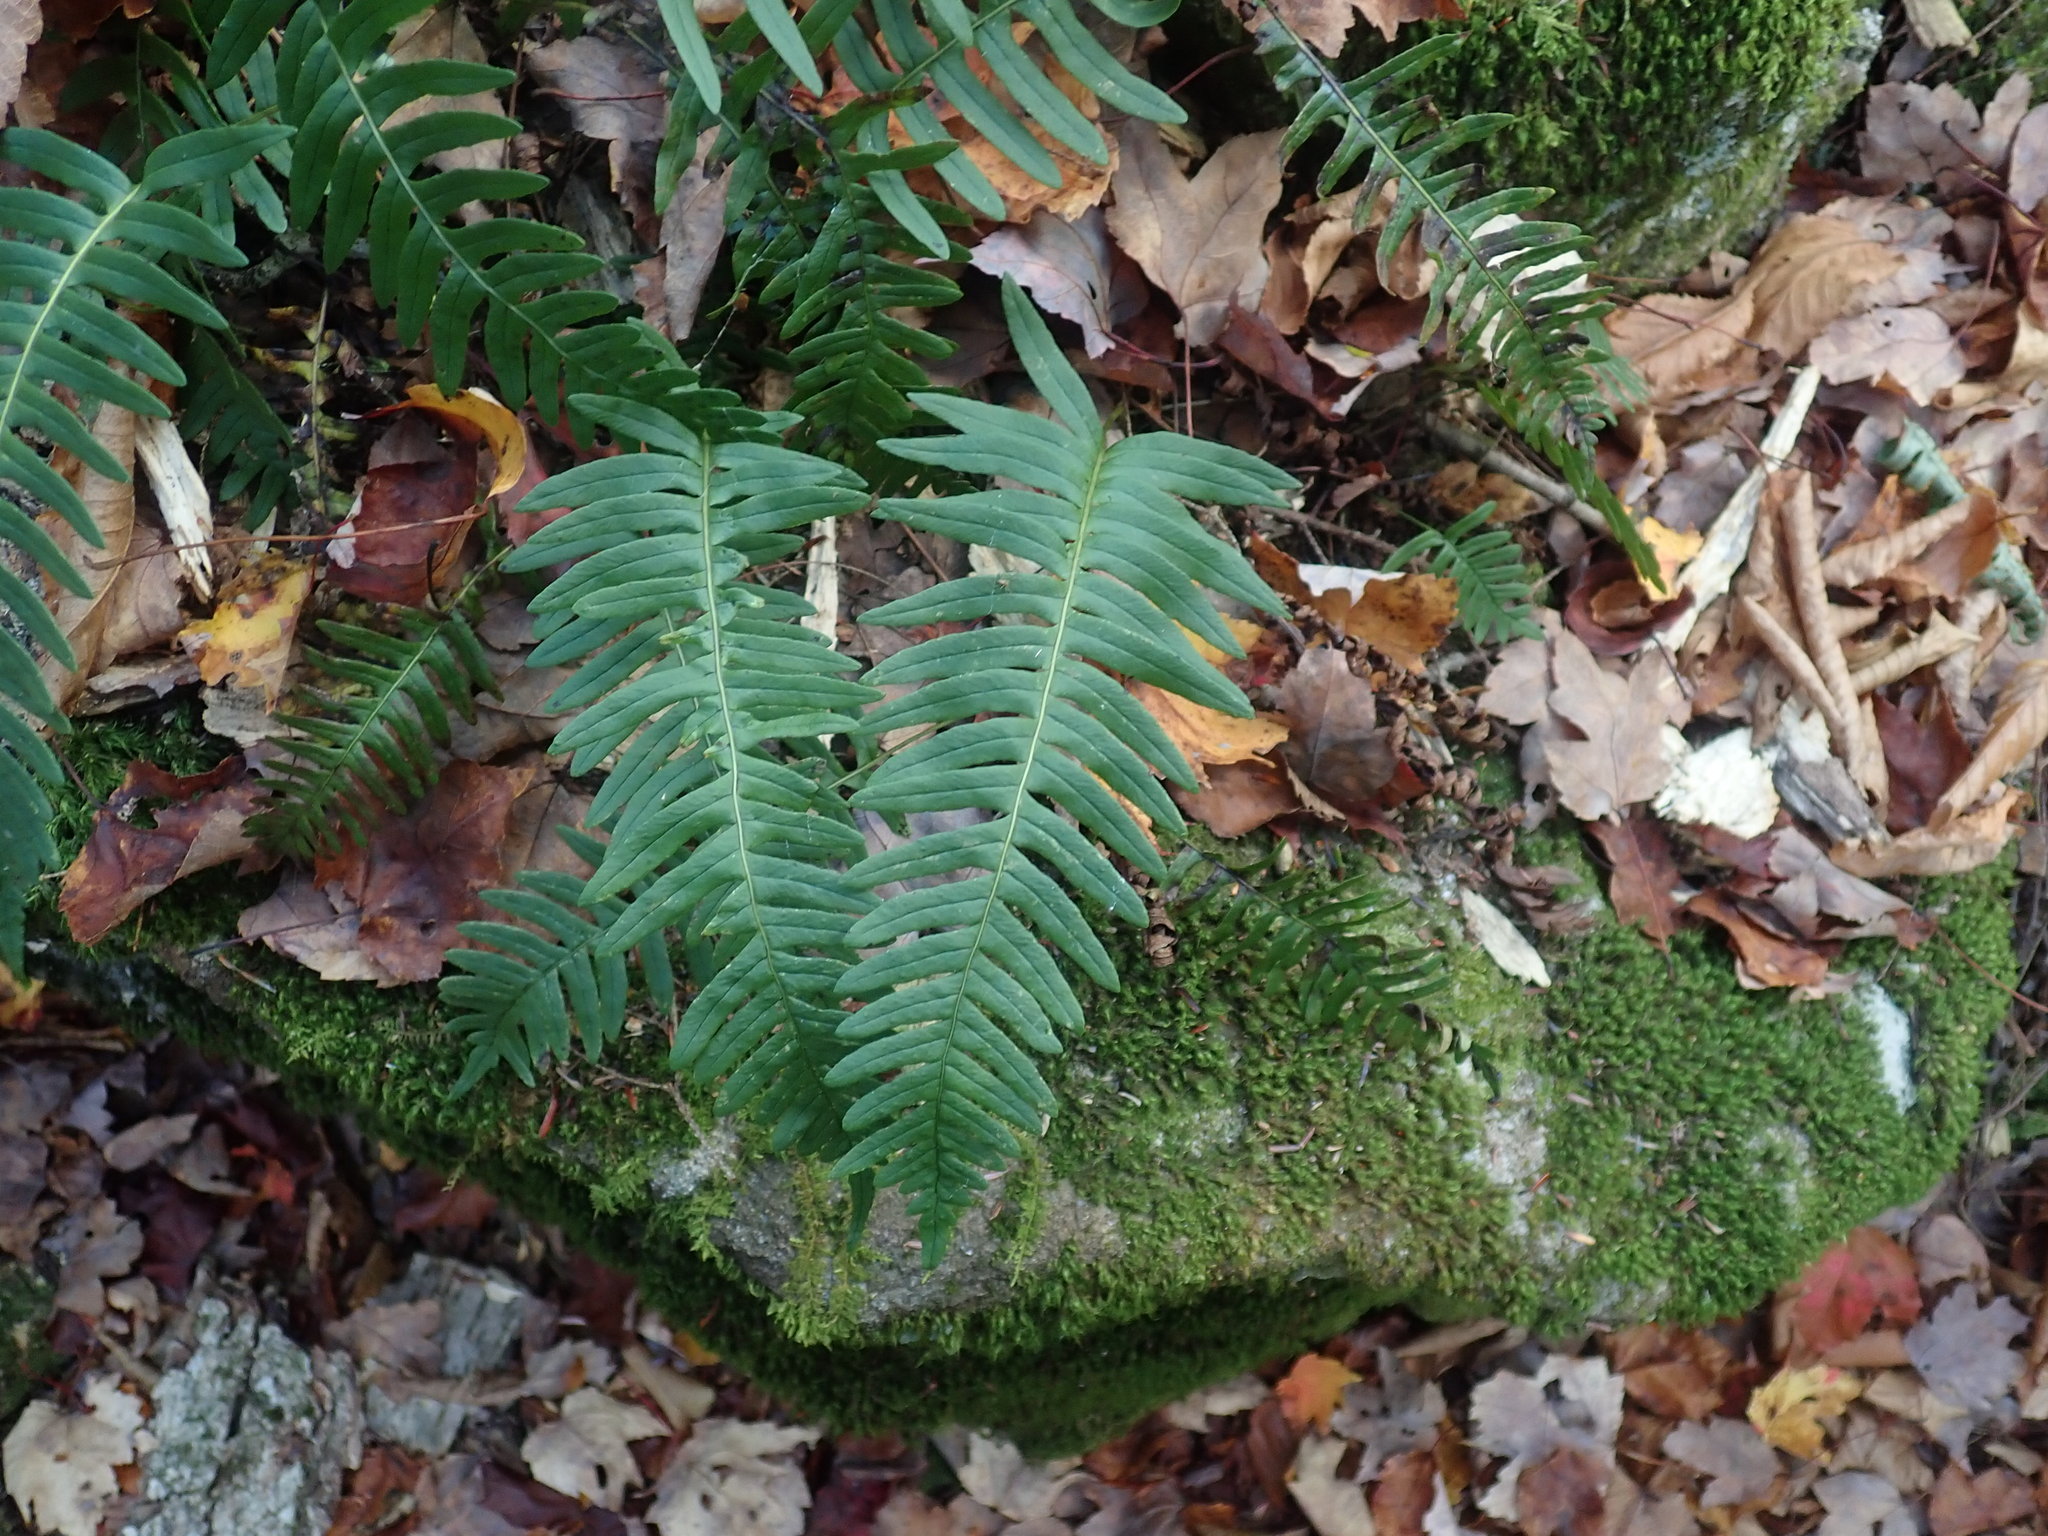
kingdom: Plantae
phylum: Tracheophyta
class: Polypodiopsida
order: Polypodiales
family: Polypodiaceae
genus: Polypodium
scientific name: Polypodium
